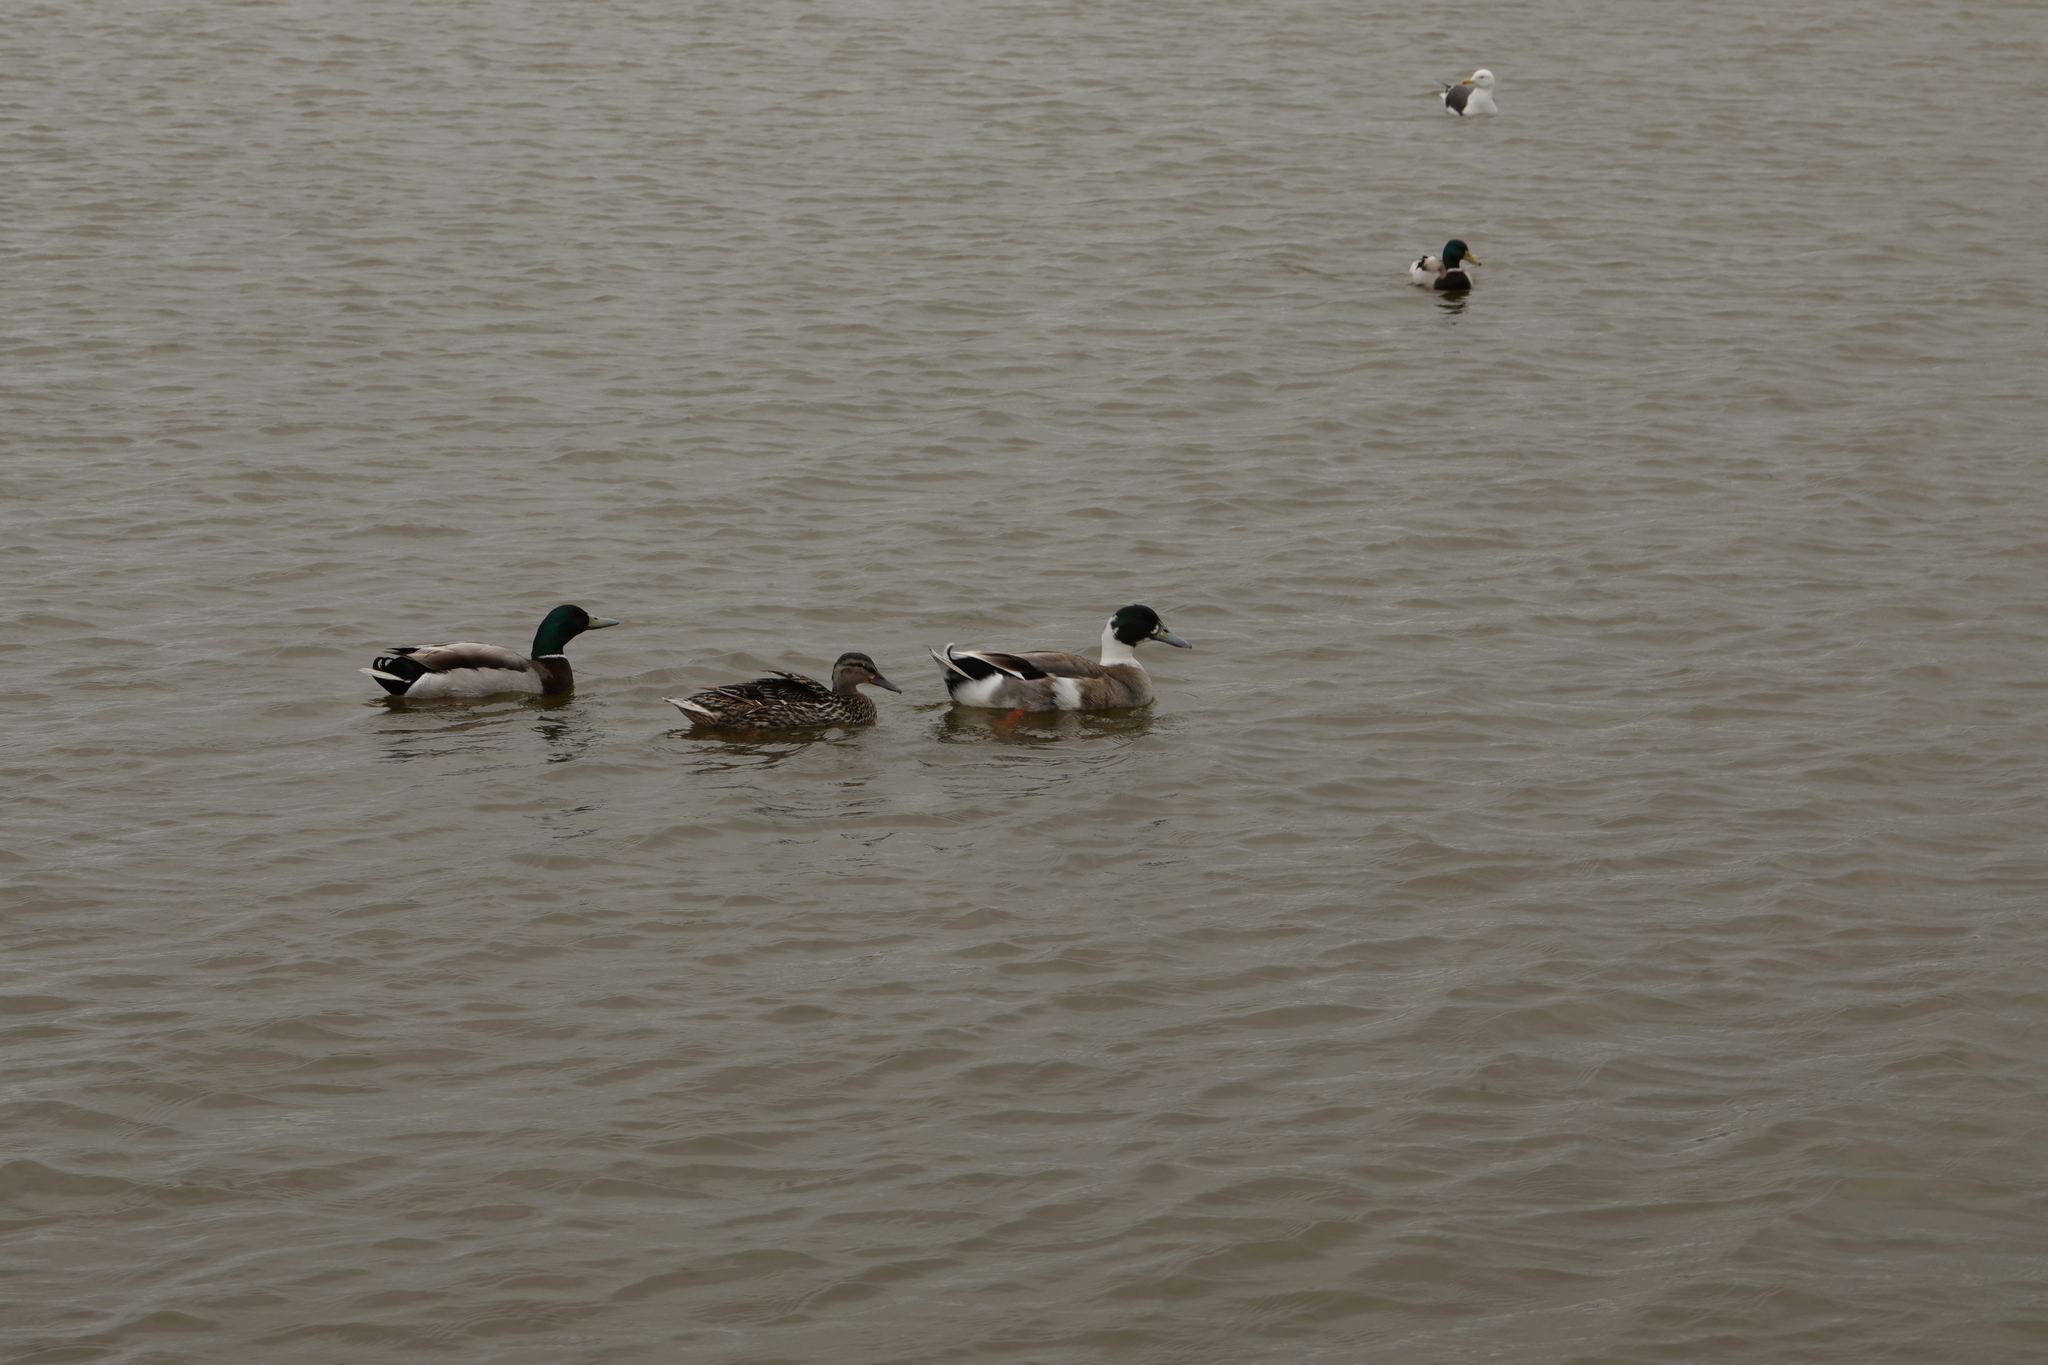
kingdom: Animalia
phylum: Chordata
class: Aves
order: Anseriformes
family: Anatidae
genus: Anas
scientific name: Anas platyrhynchos
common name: Mallard
